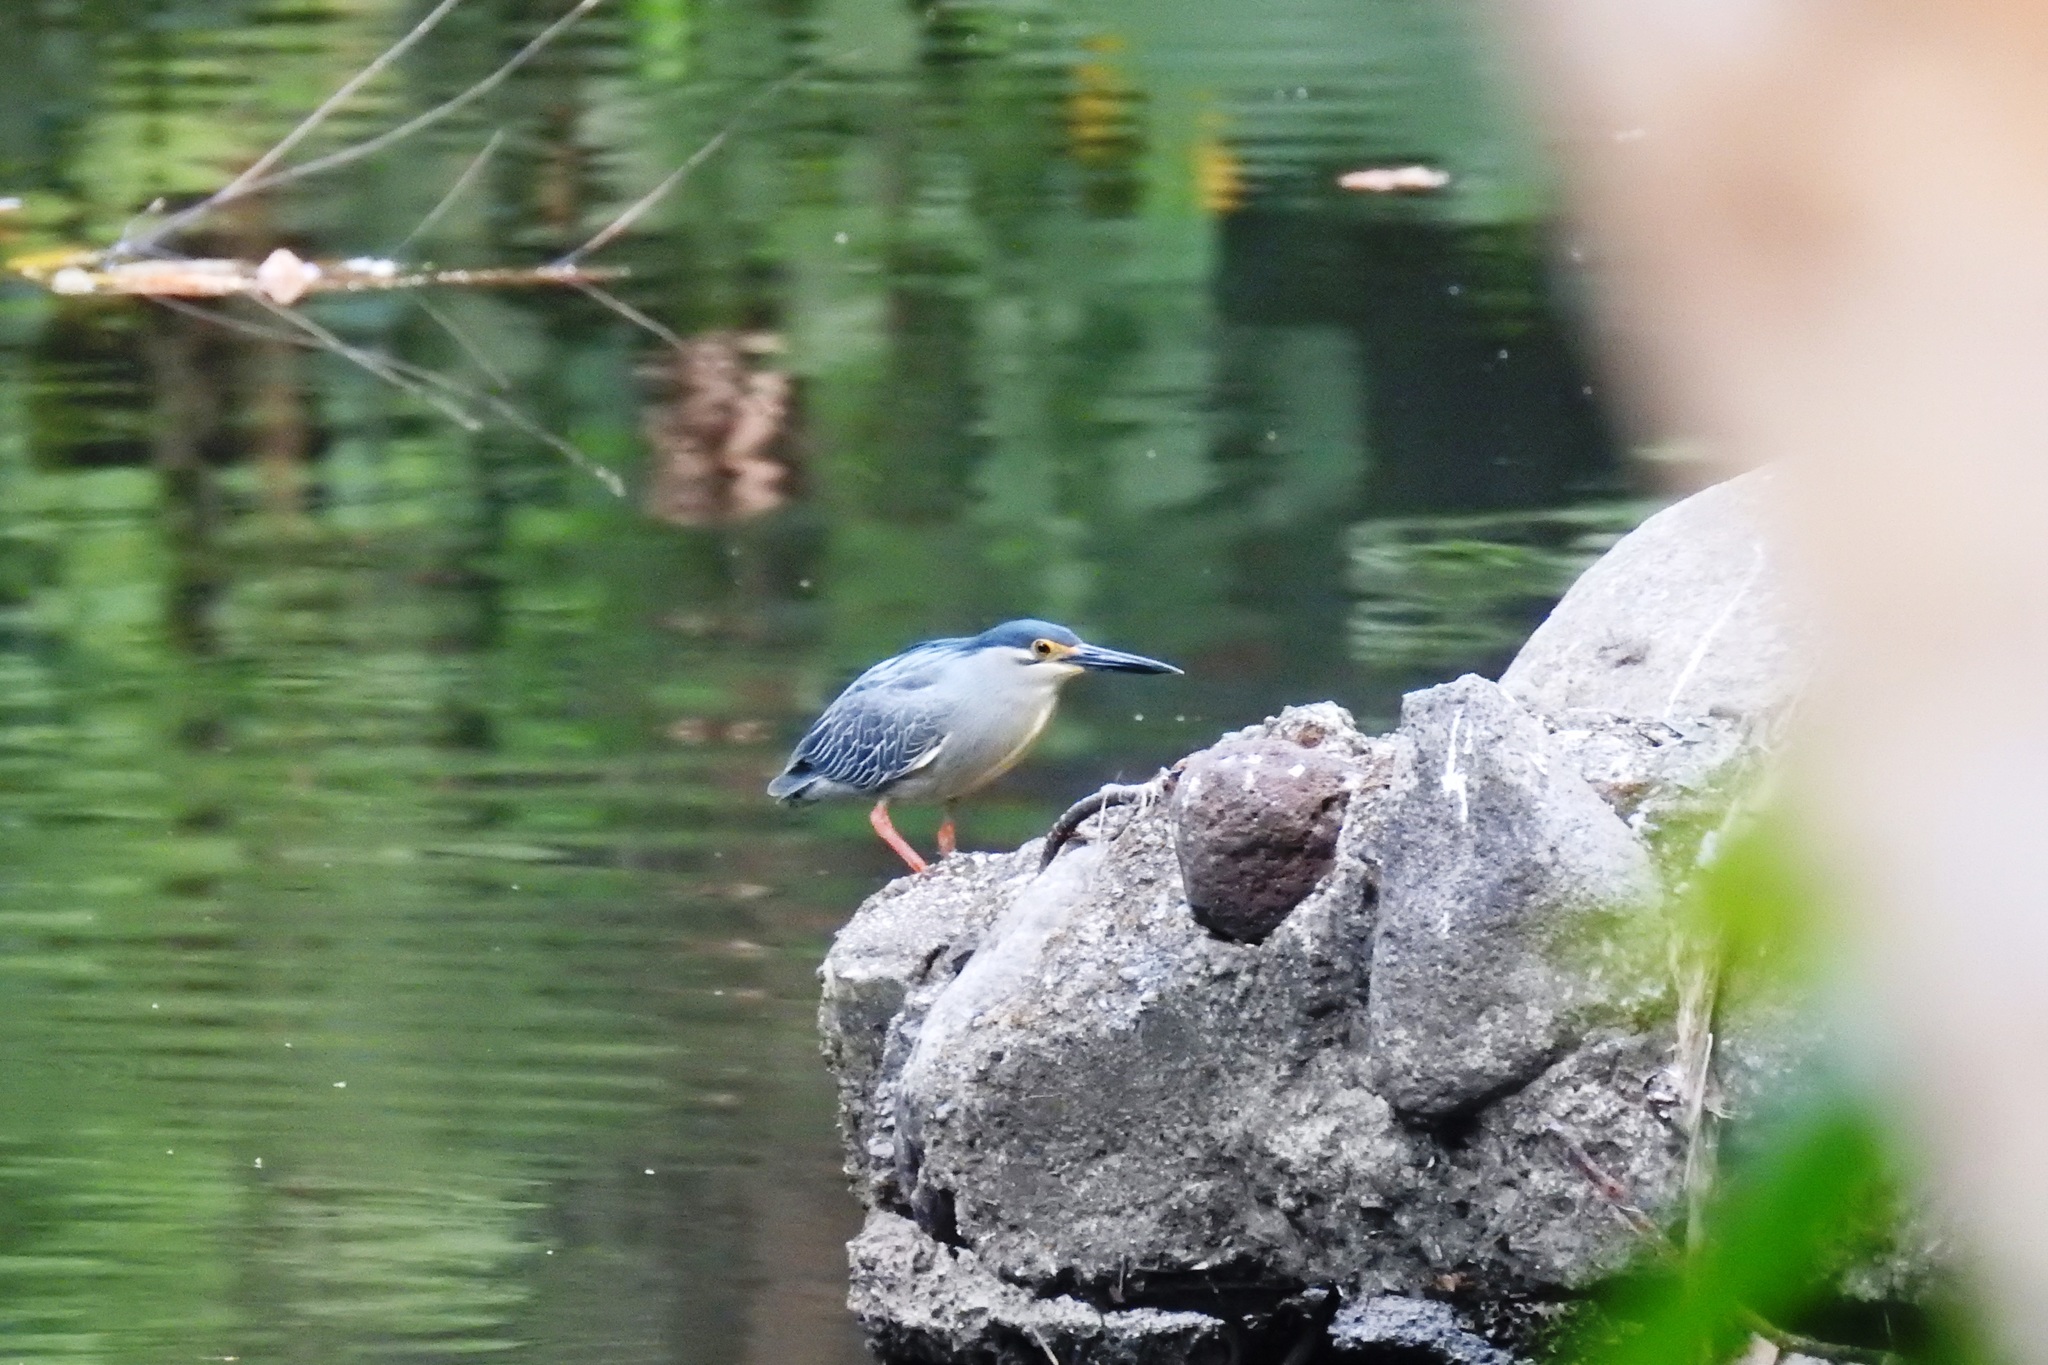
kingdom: Animalia
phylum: Chordata
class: Aves
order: Pelecaniformes
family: Ardeidae
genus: Butorides
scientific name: Butorides striata
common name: Striated heron
